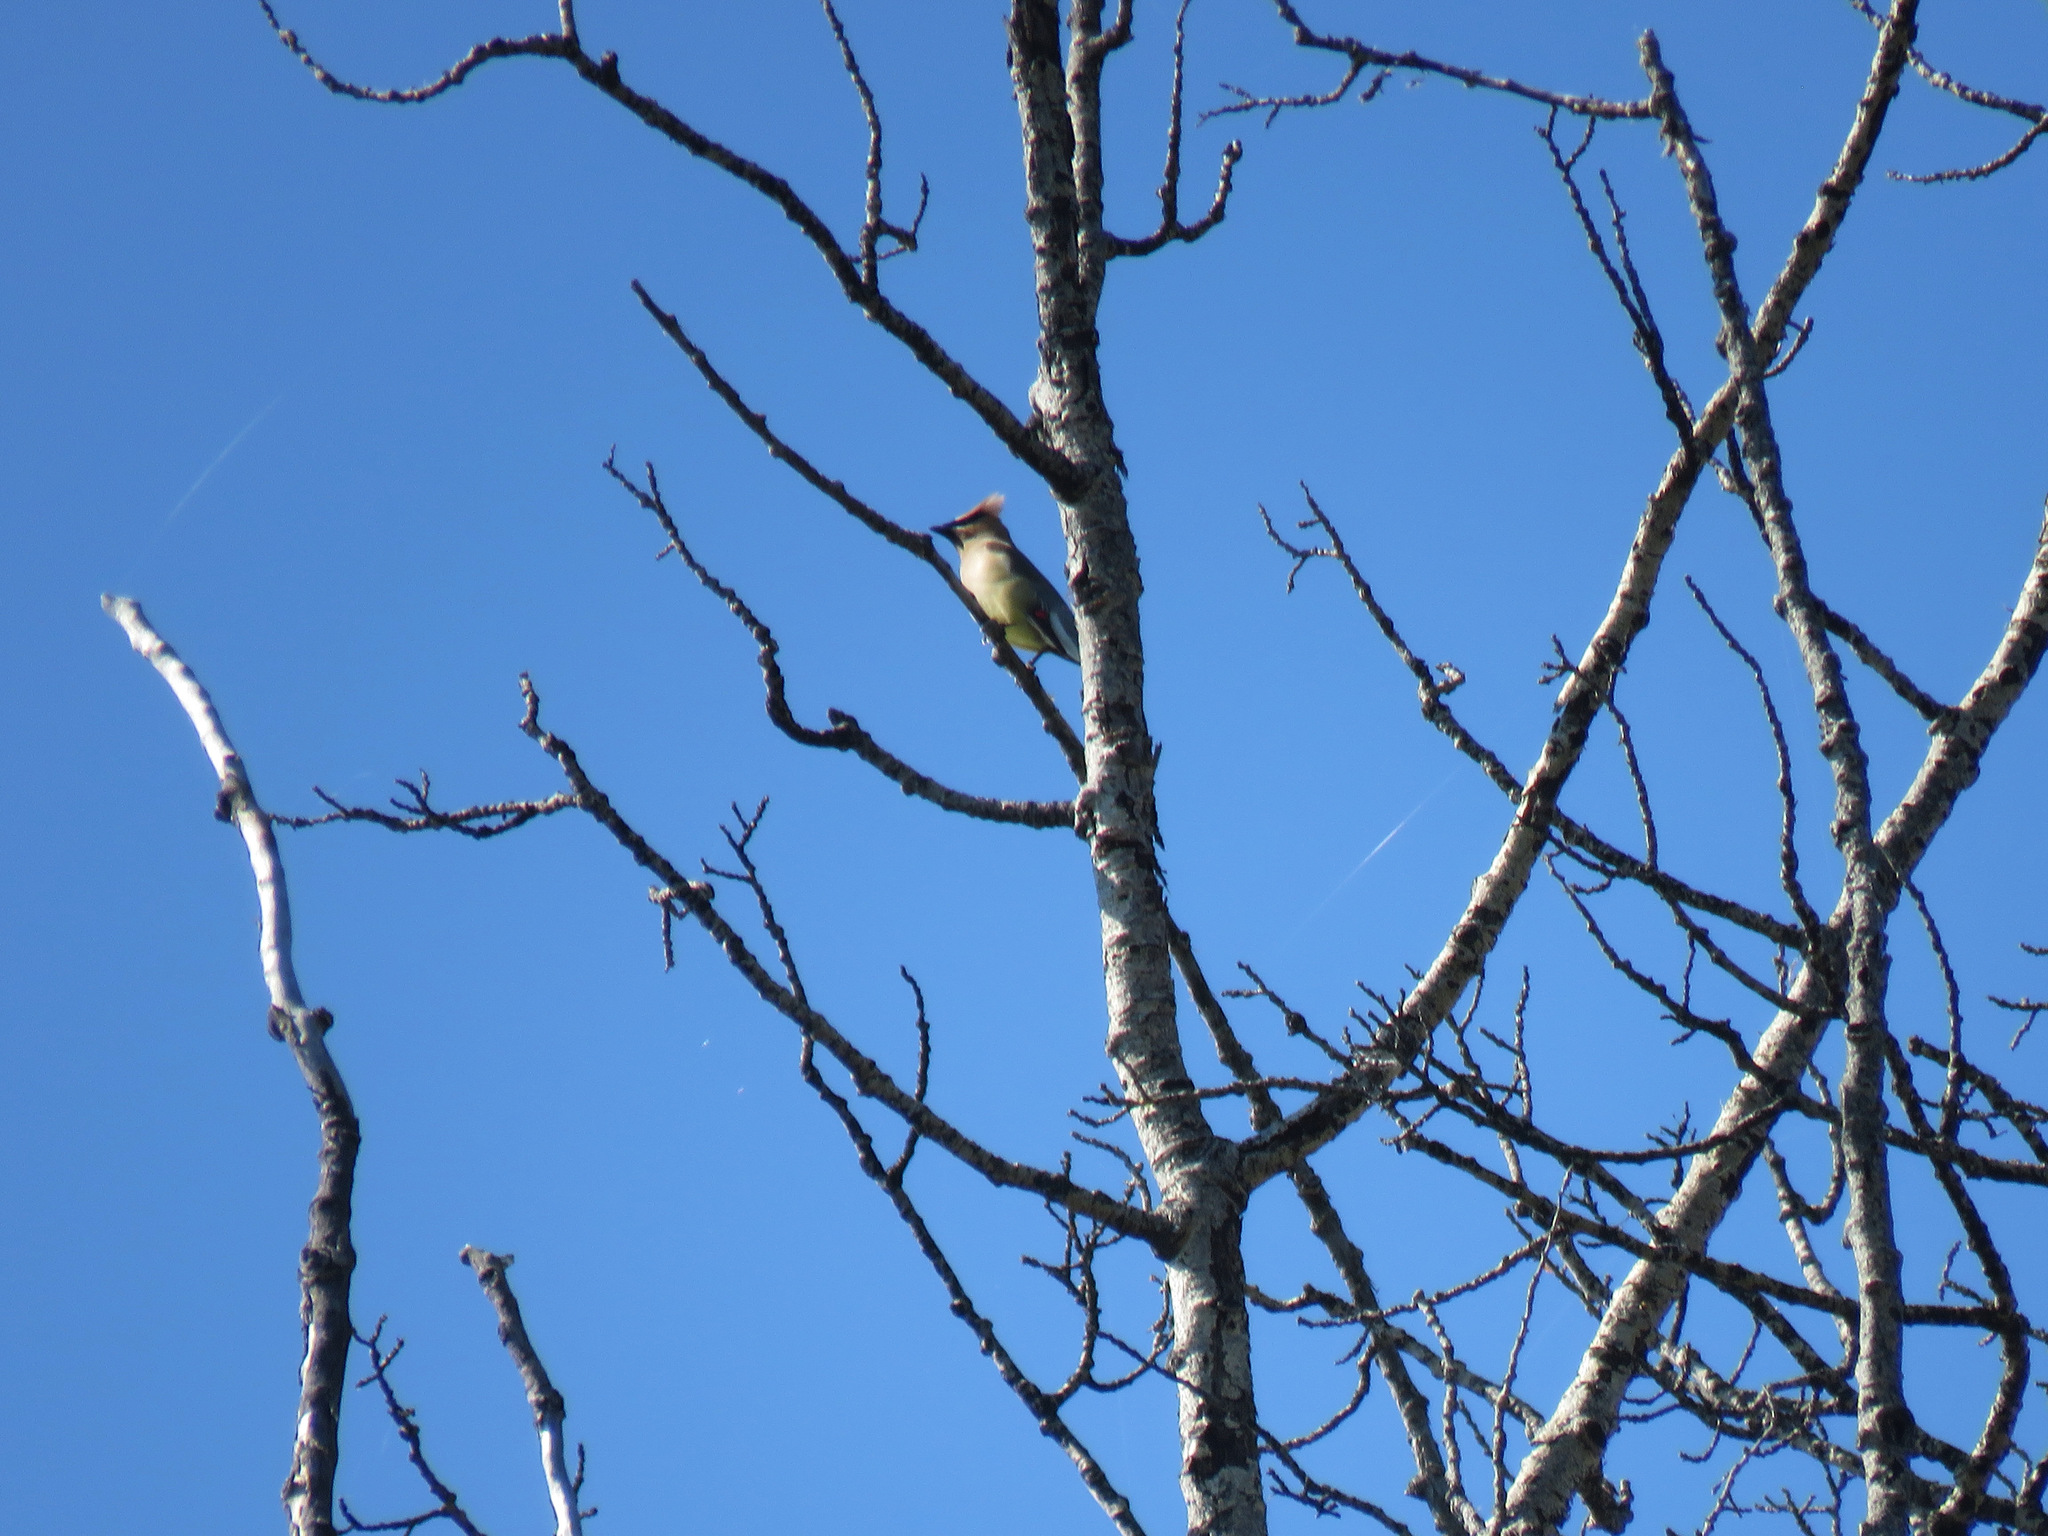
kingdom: Animalia
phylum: Chordata
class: Aves
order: Passeriformes
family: Bombycillidae
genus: Bombycilla
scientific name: Bombycilla cedrorum
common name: Cedar waxwing
